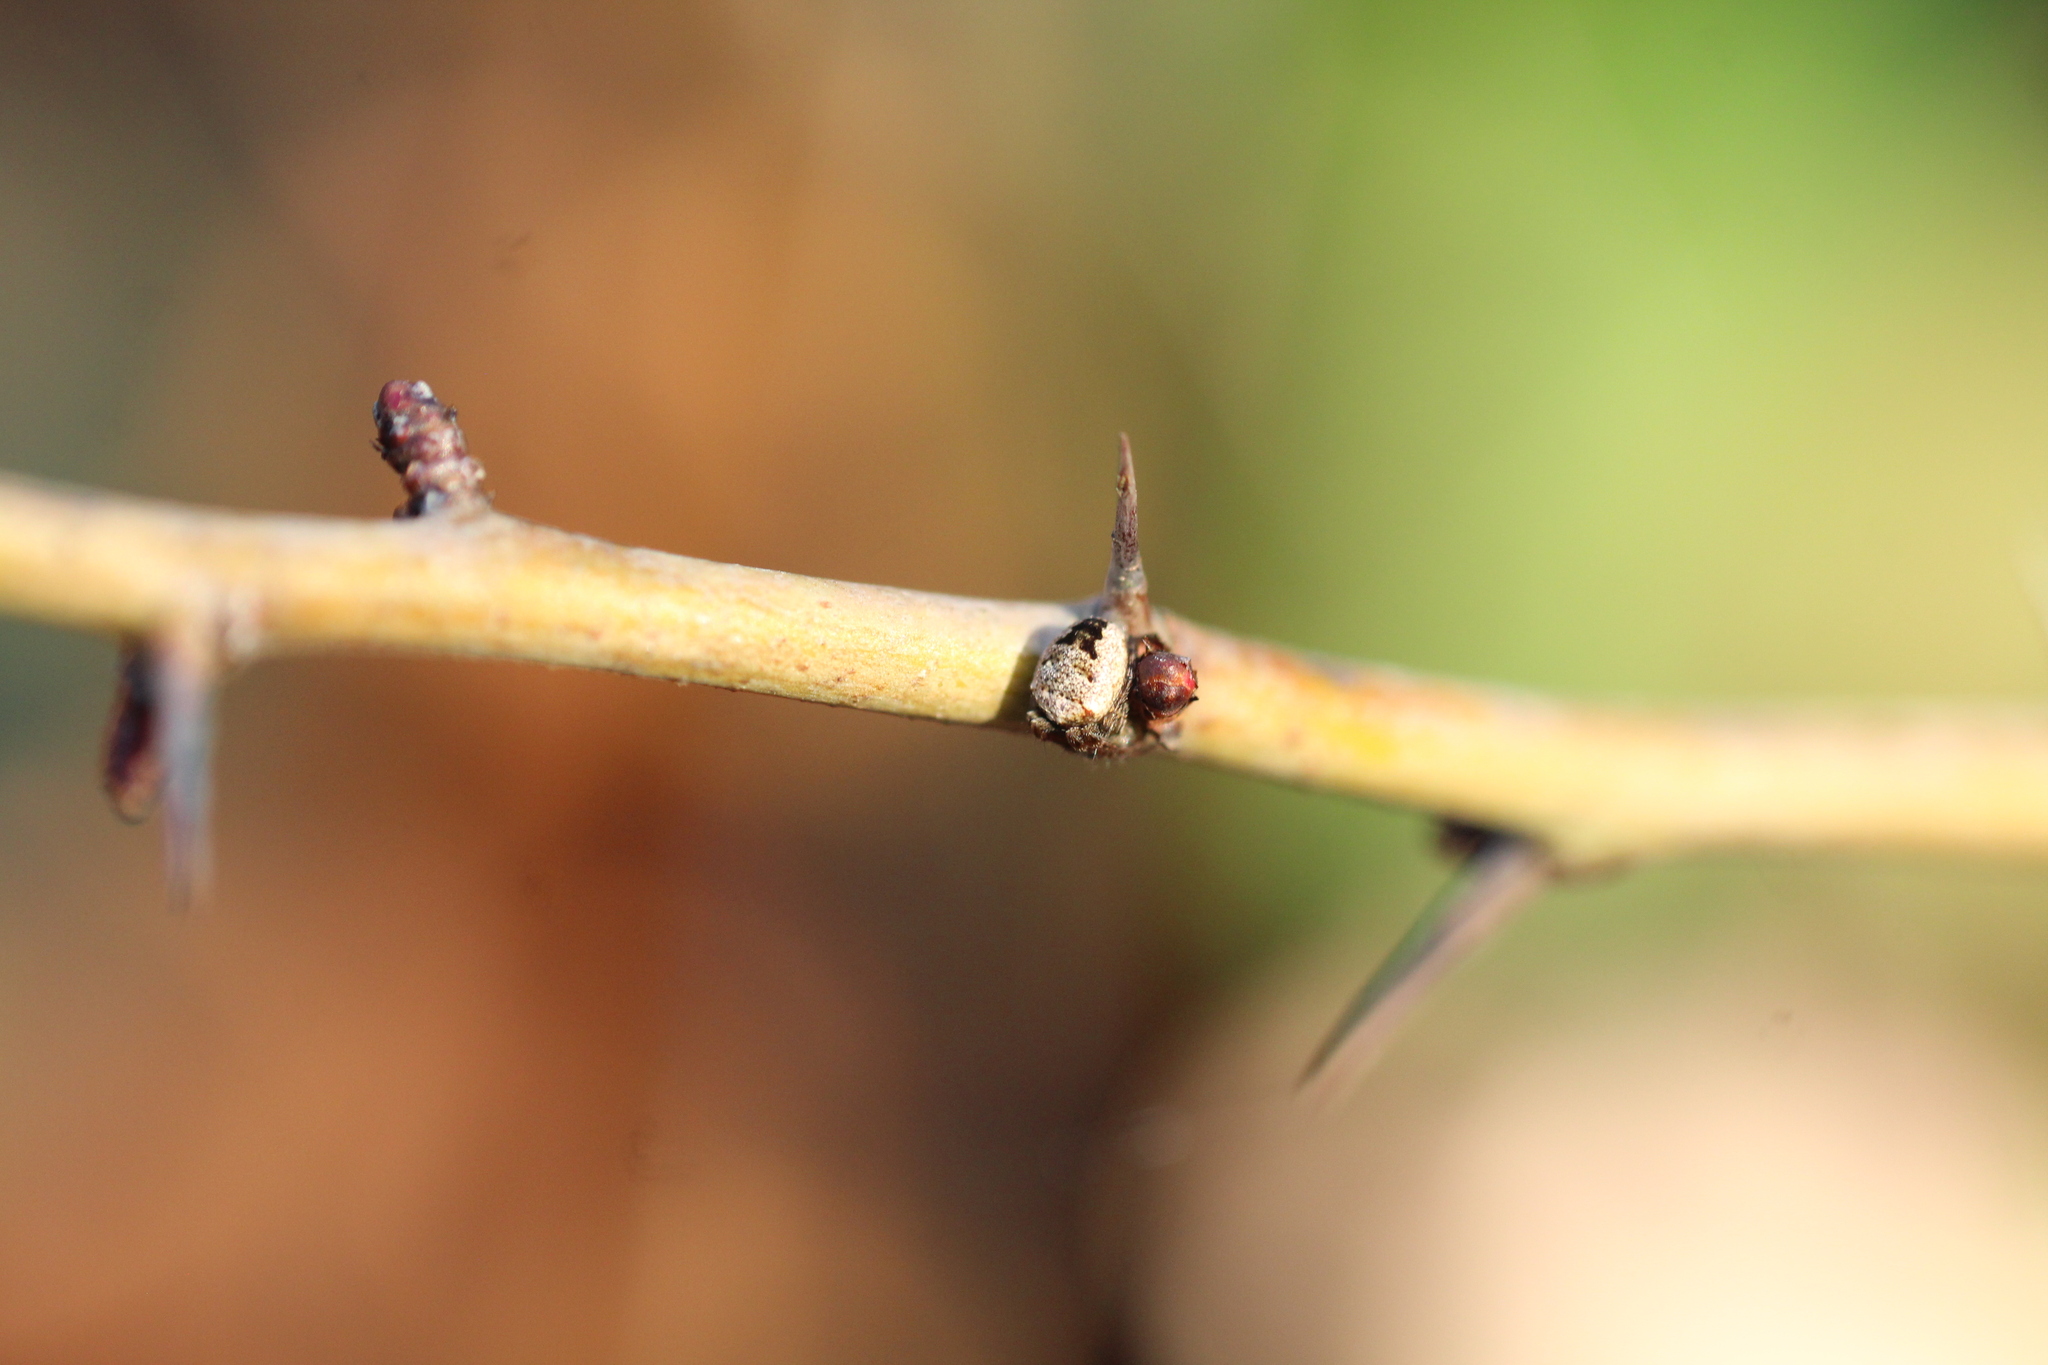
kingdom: Animalia
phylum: Arthropoda
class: Arachnida
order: Araneae
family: Araneidae
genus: Zilla
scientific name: Zilla diodia
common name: Zilla diodia
